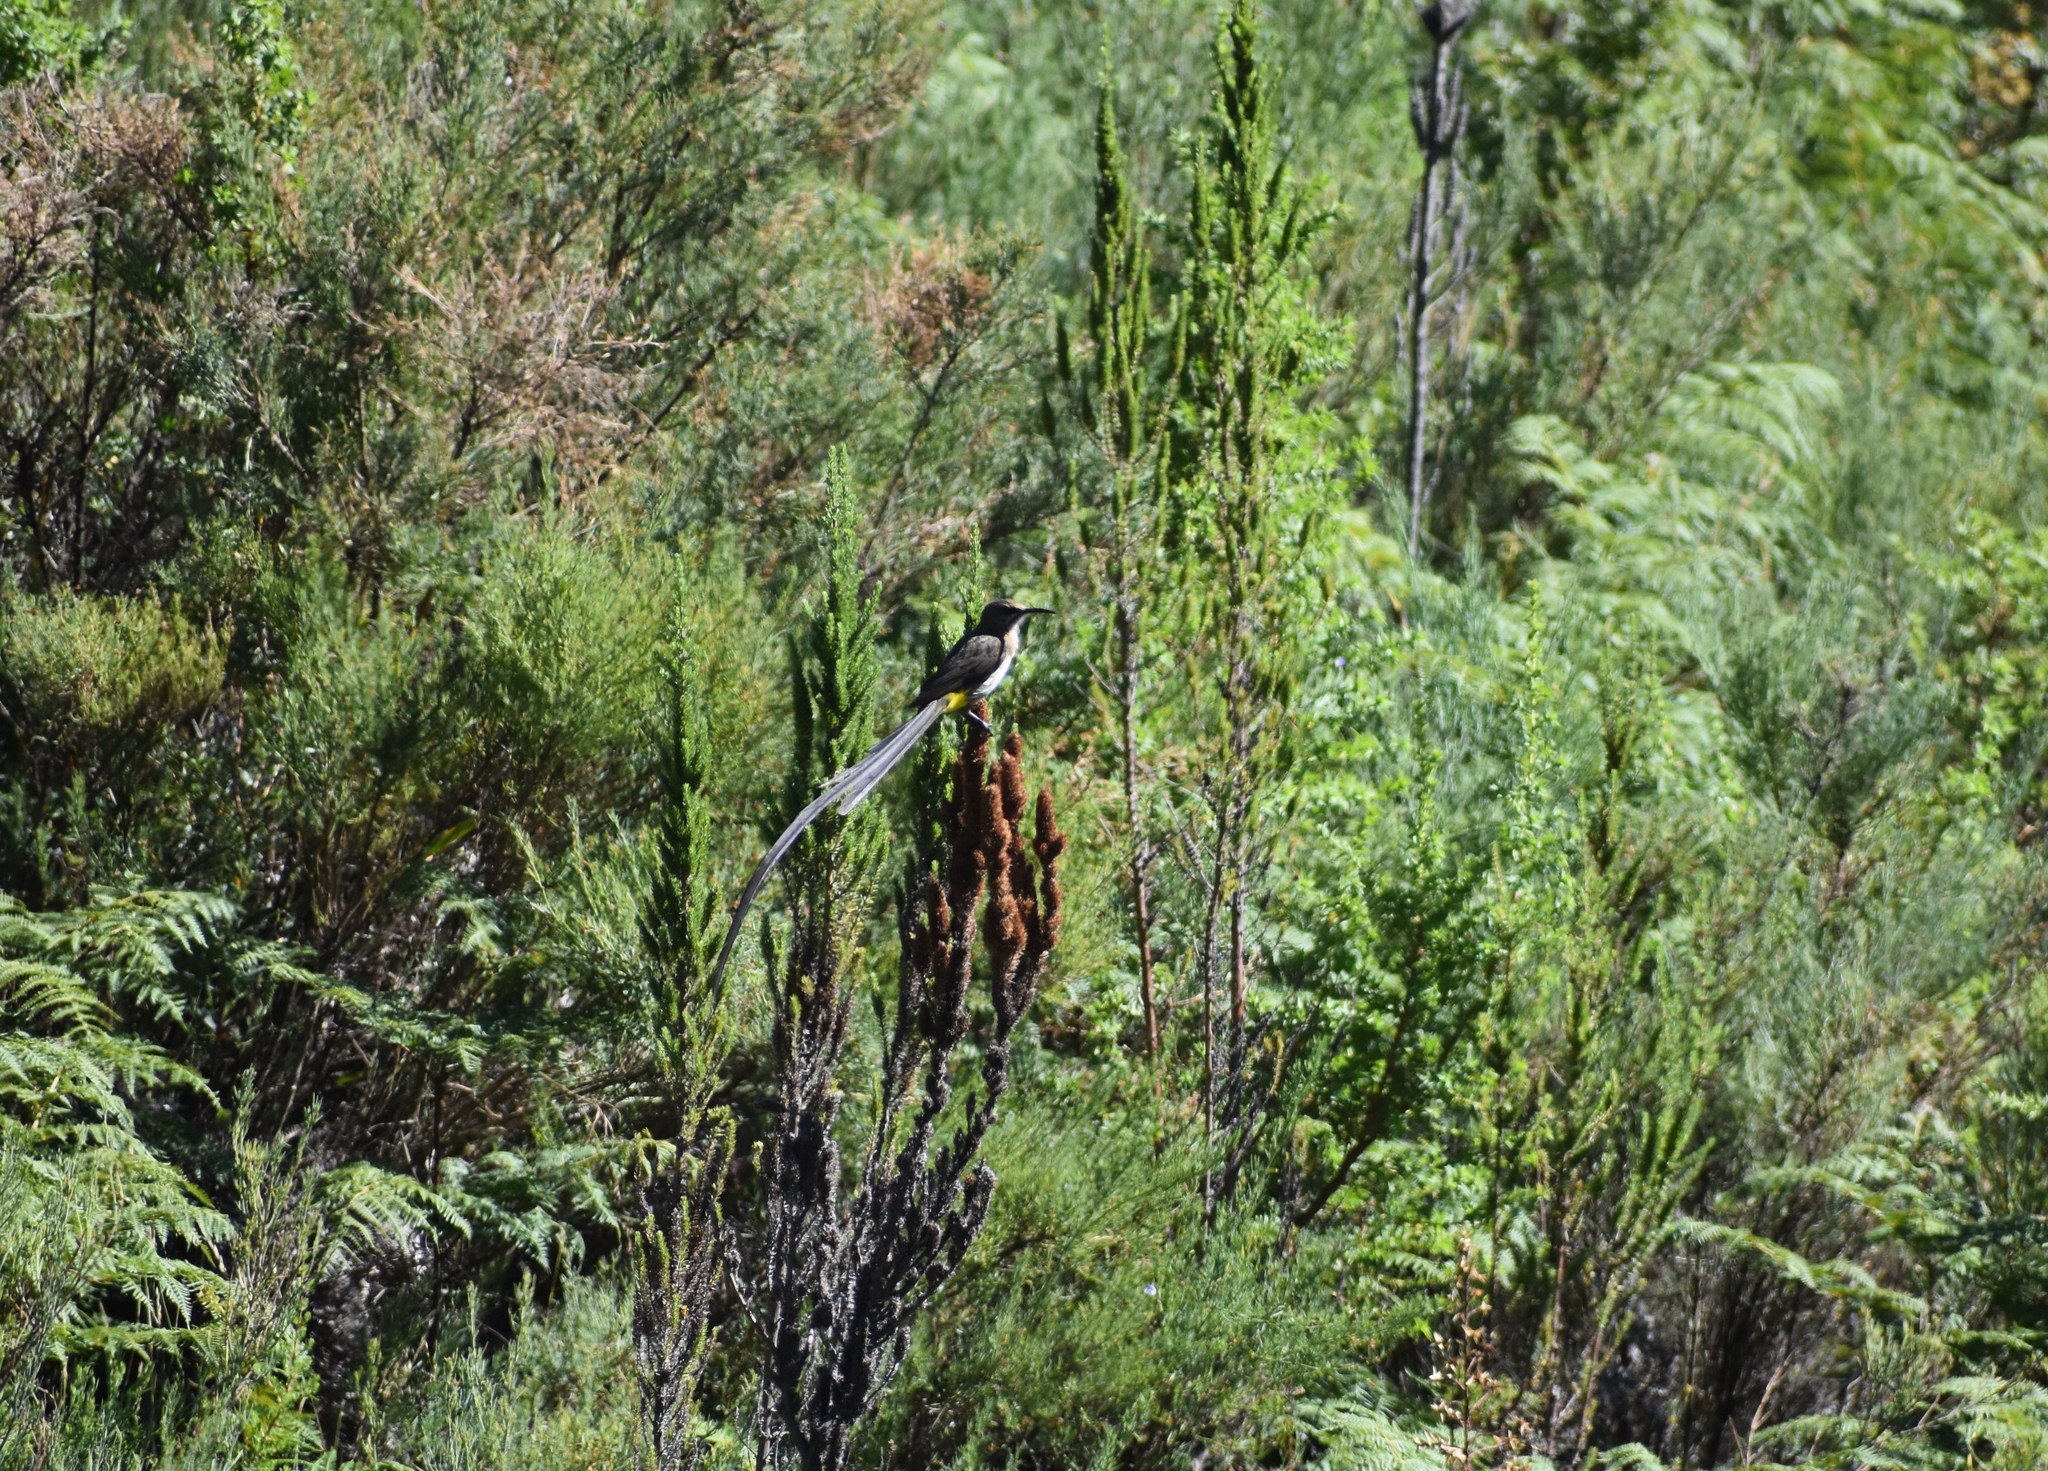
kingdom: Animalia
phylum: Chordata
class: Aves
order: Passeriformes
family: Promeropidae
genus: Promerops
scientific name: Promerops cafer
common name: Cape sugarbird
